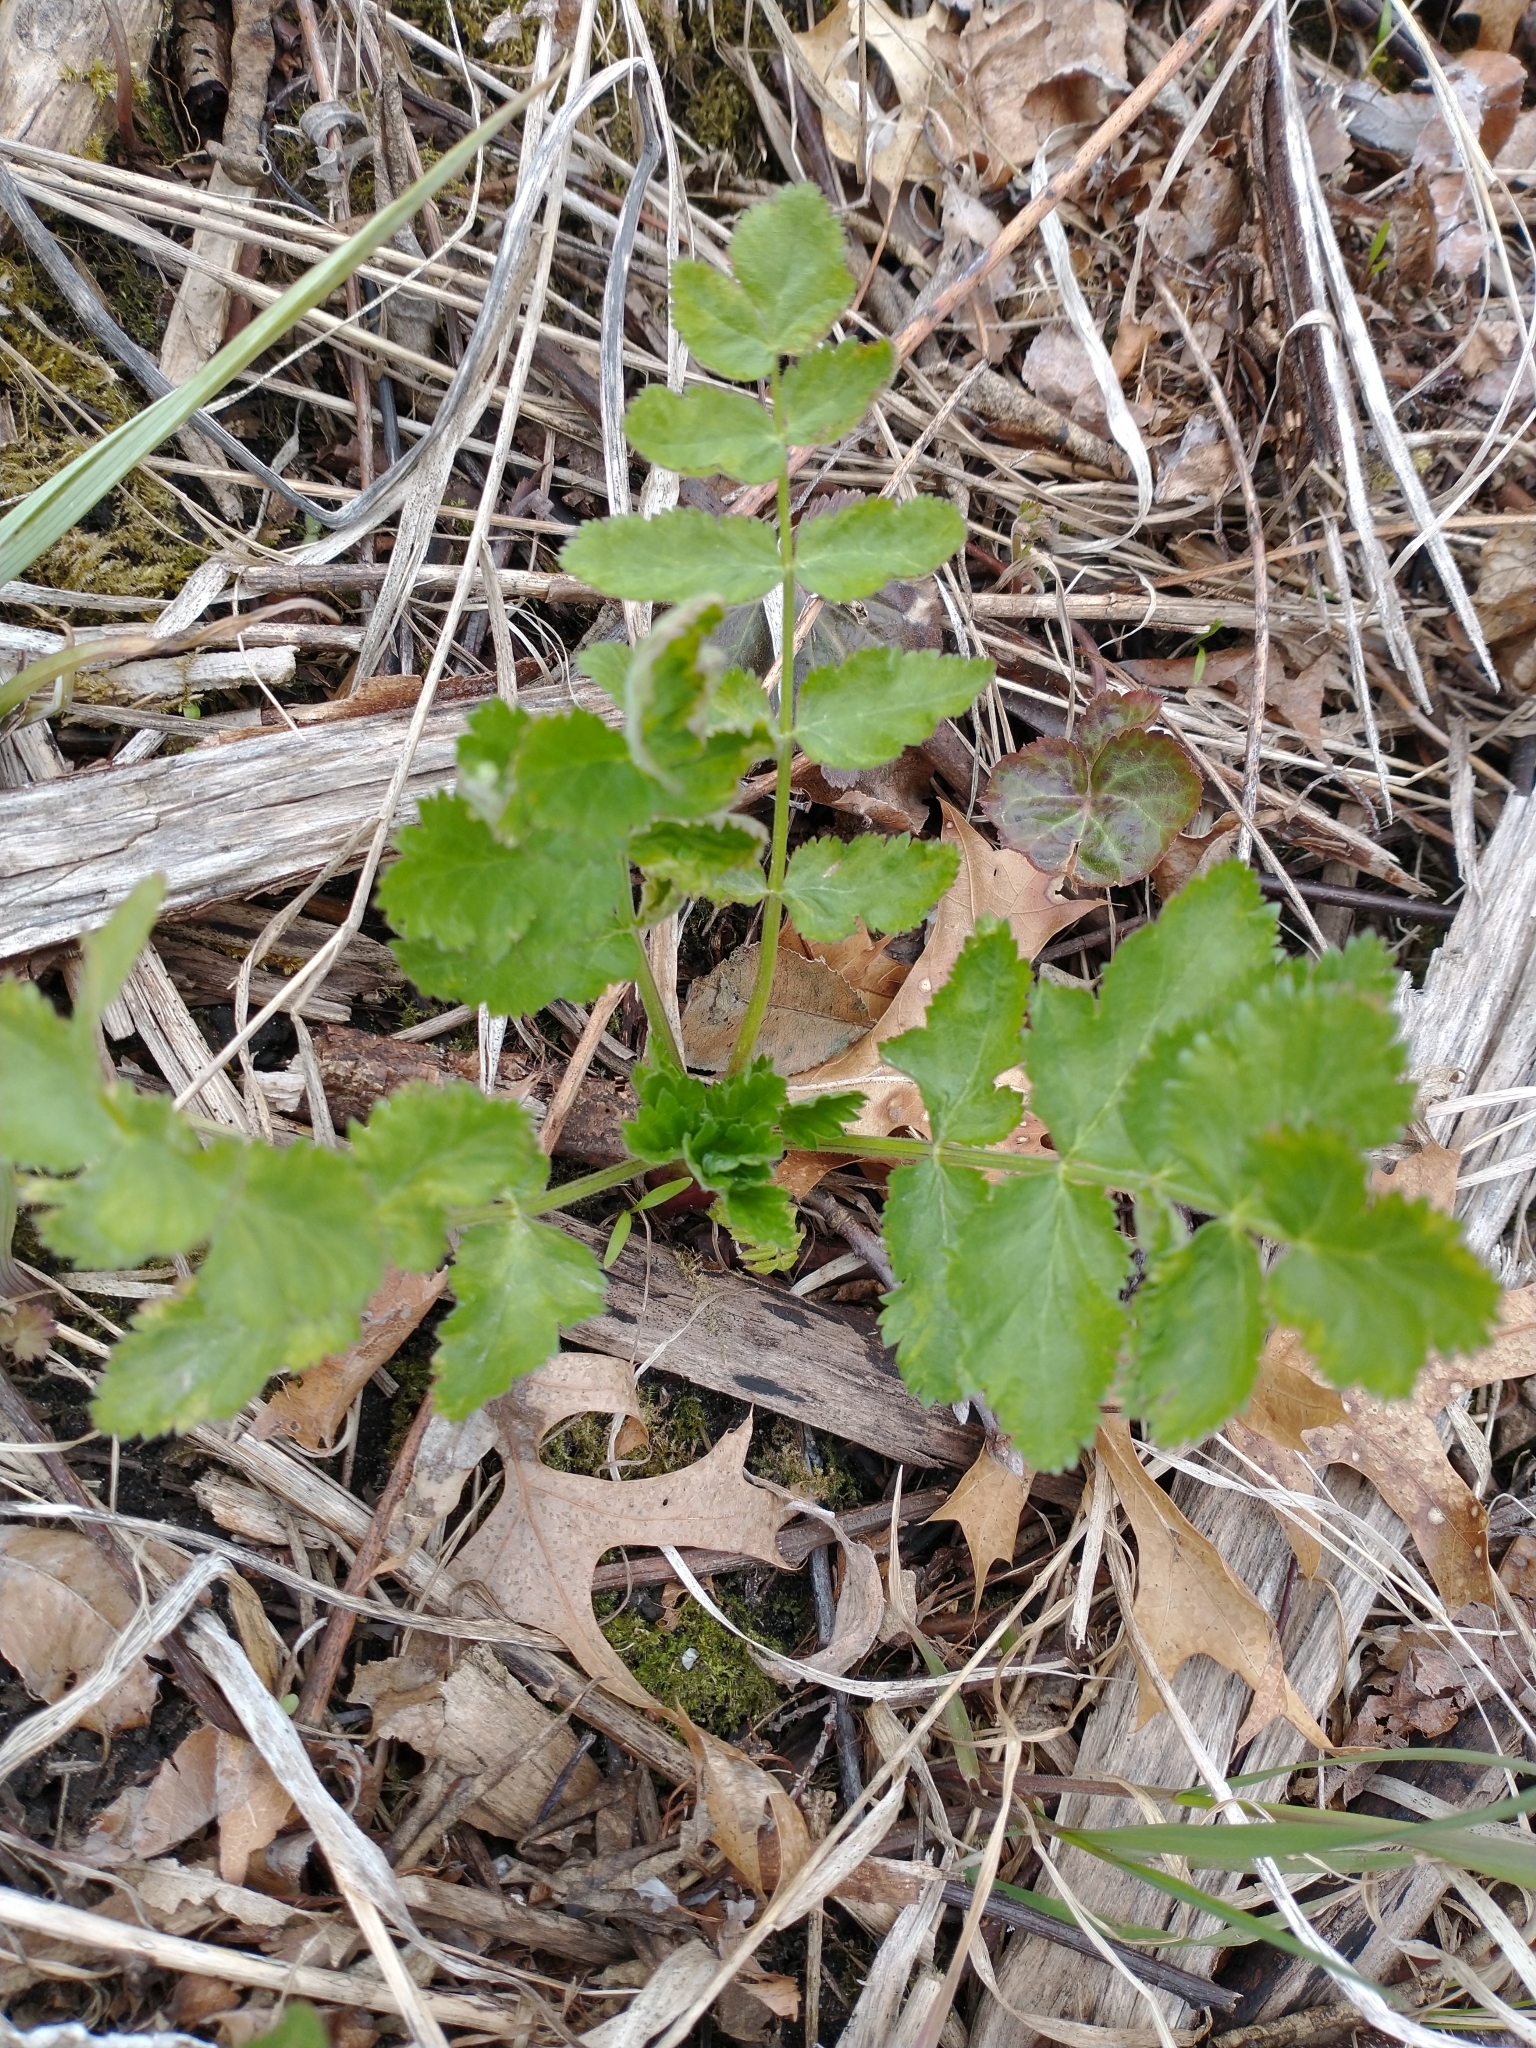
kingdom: Plantae
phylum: Tracheophyta
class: Magnoliopsida
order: Apiales
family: Apiaceae
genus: Pastinaca
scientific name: Pastinaca sativa
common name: Wild parsnip
